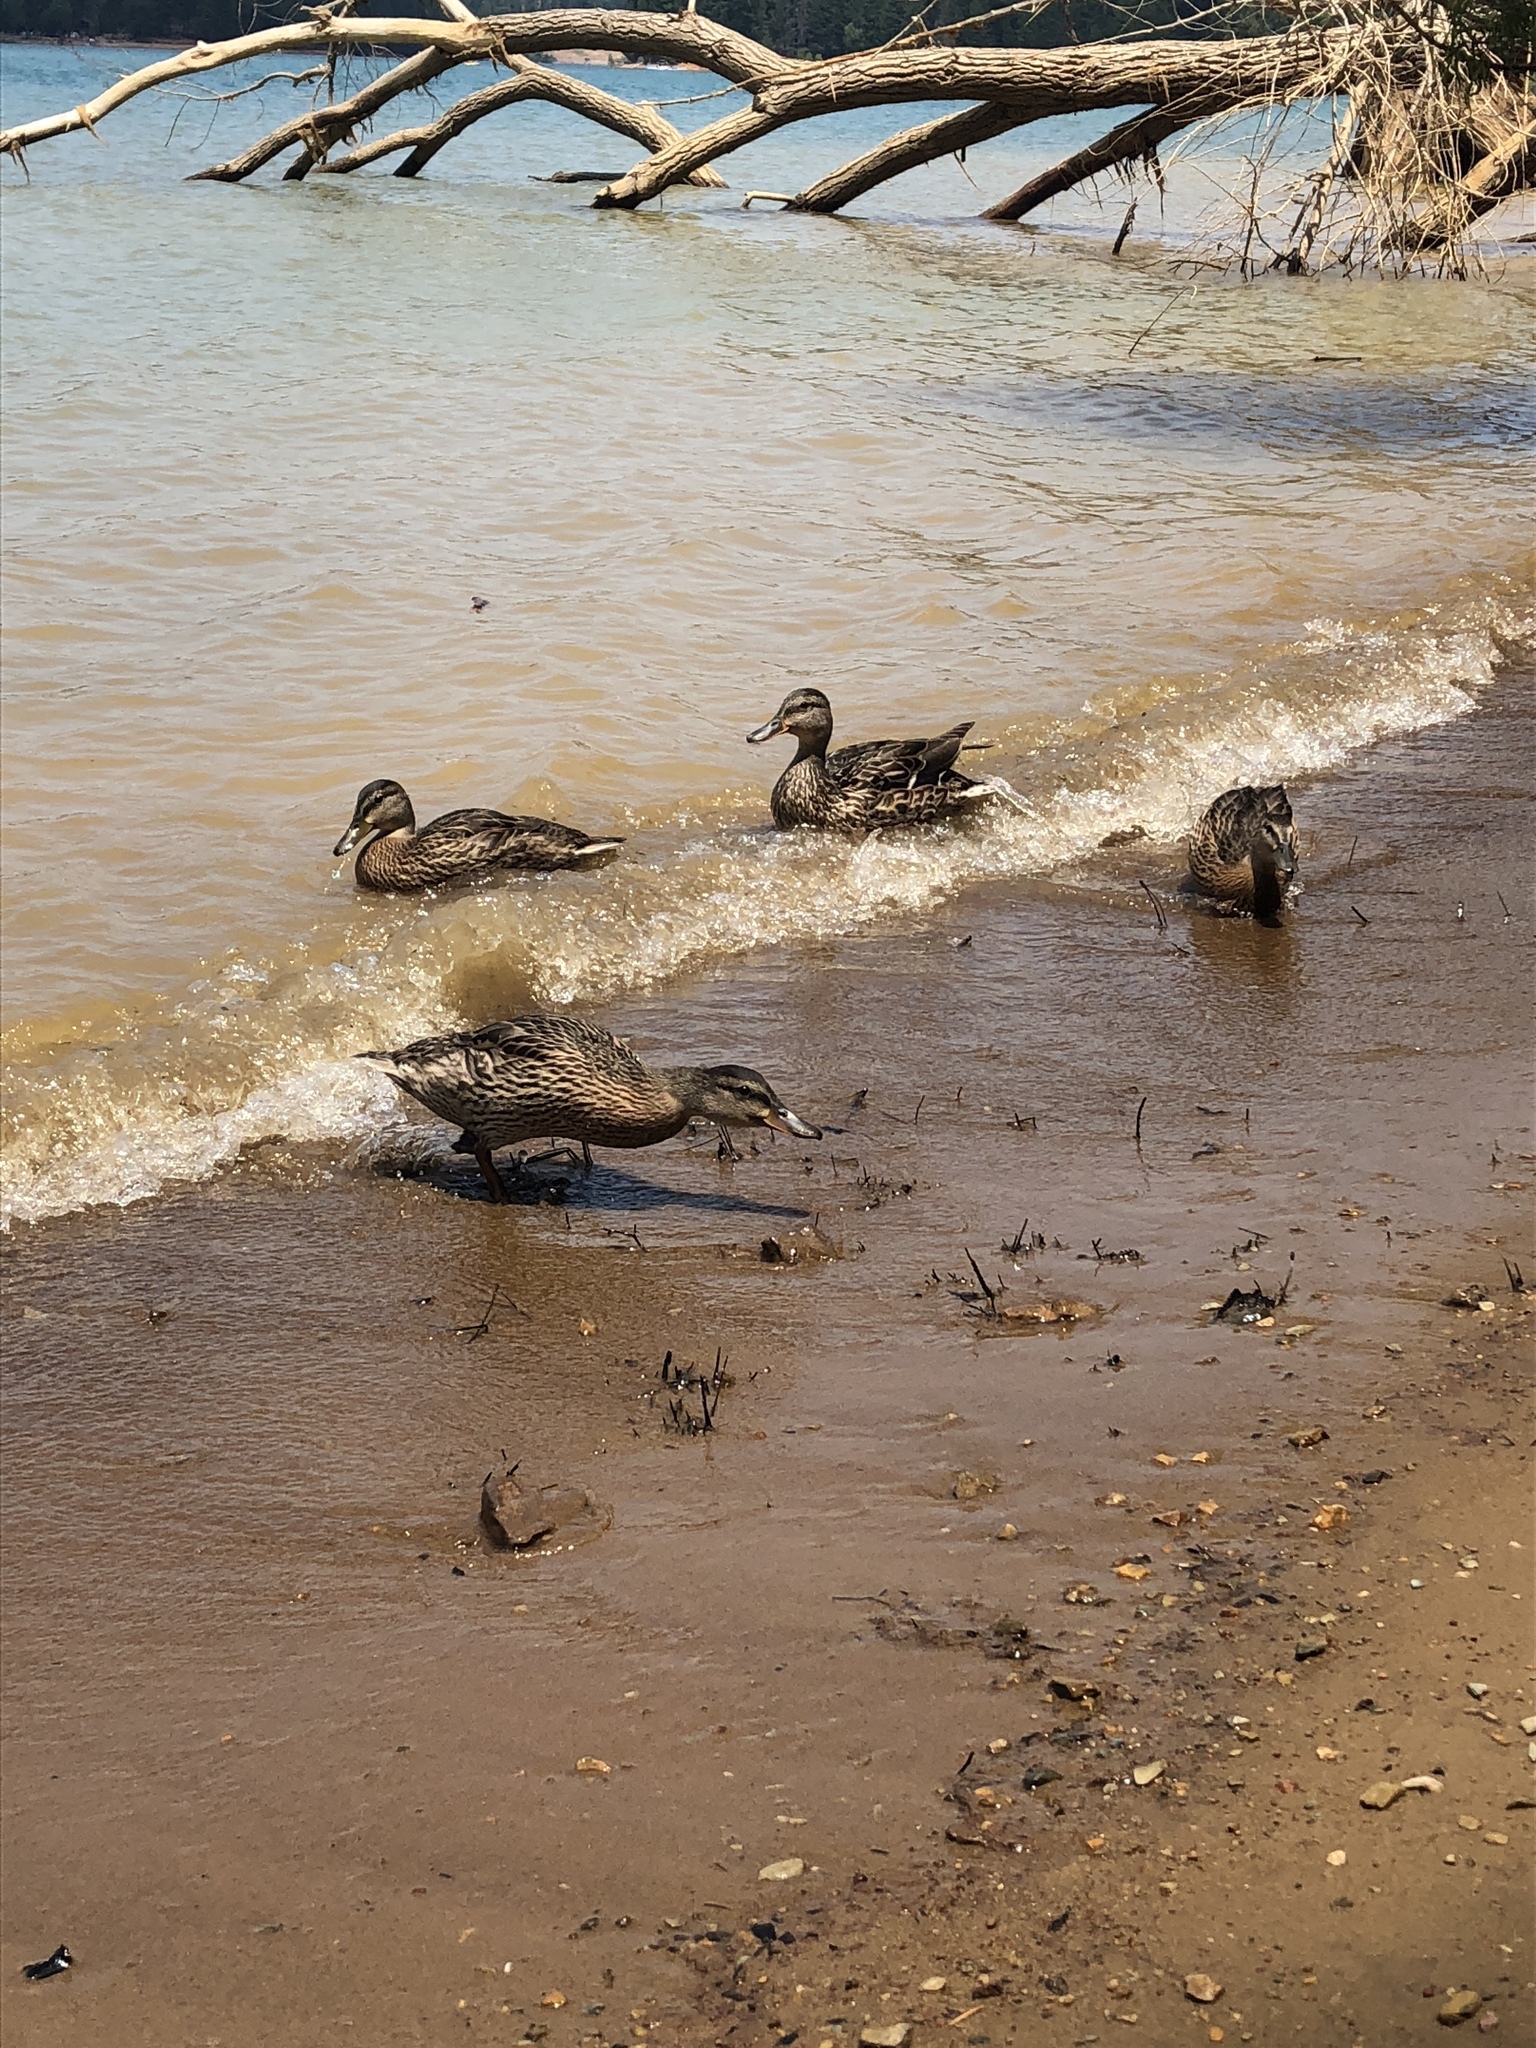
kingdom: Animalia
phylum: Chordata
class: Aves
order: Anseriformes
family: Anatidae
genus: Anas
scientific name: Anas platyrhynchos
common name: Mallard
